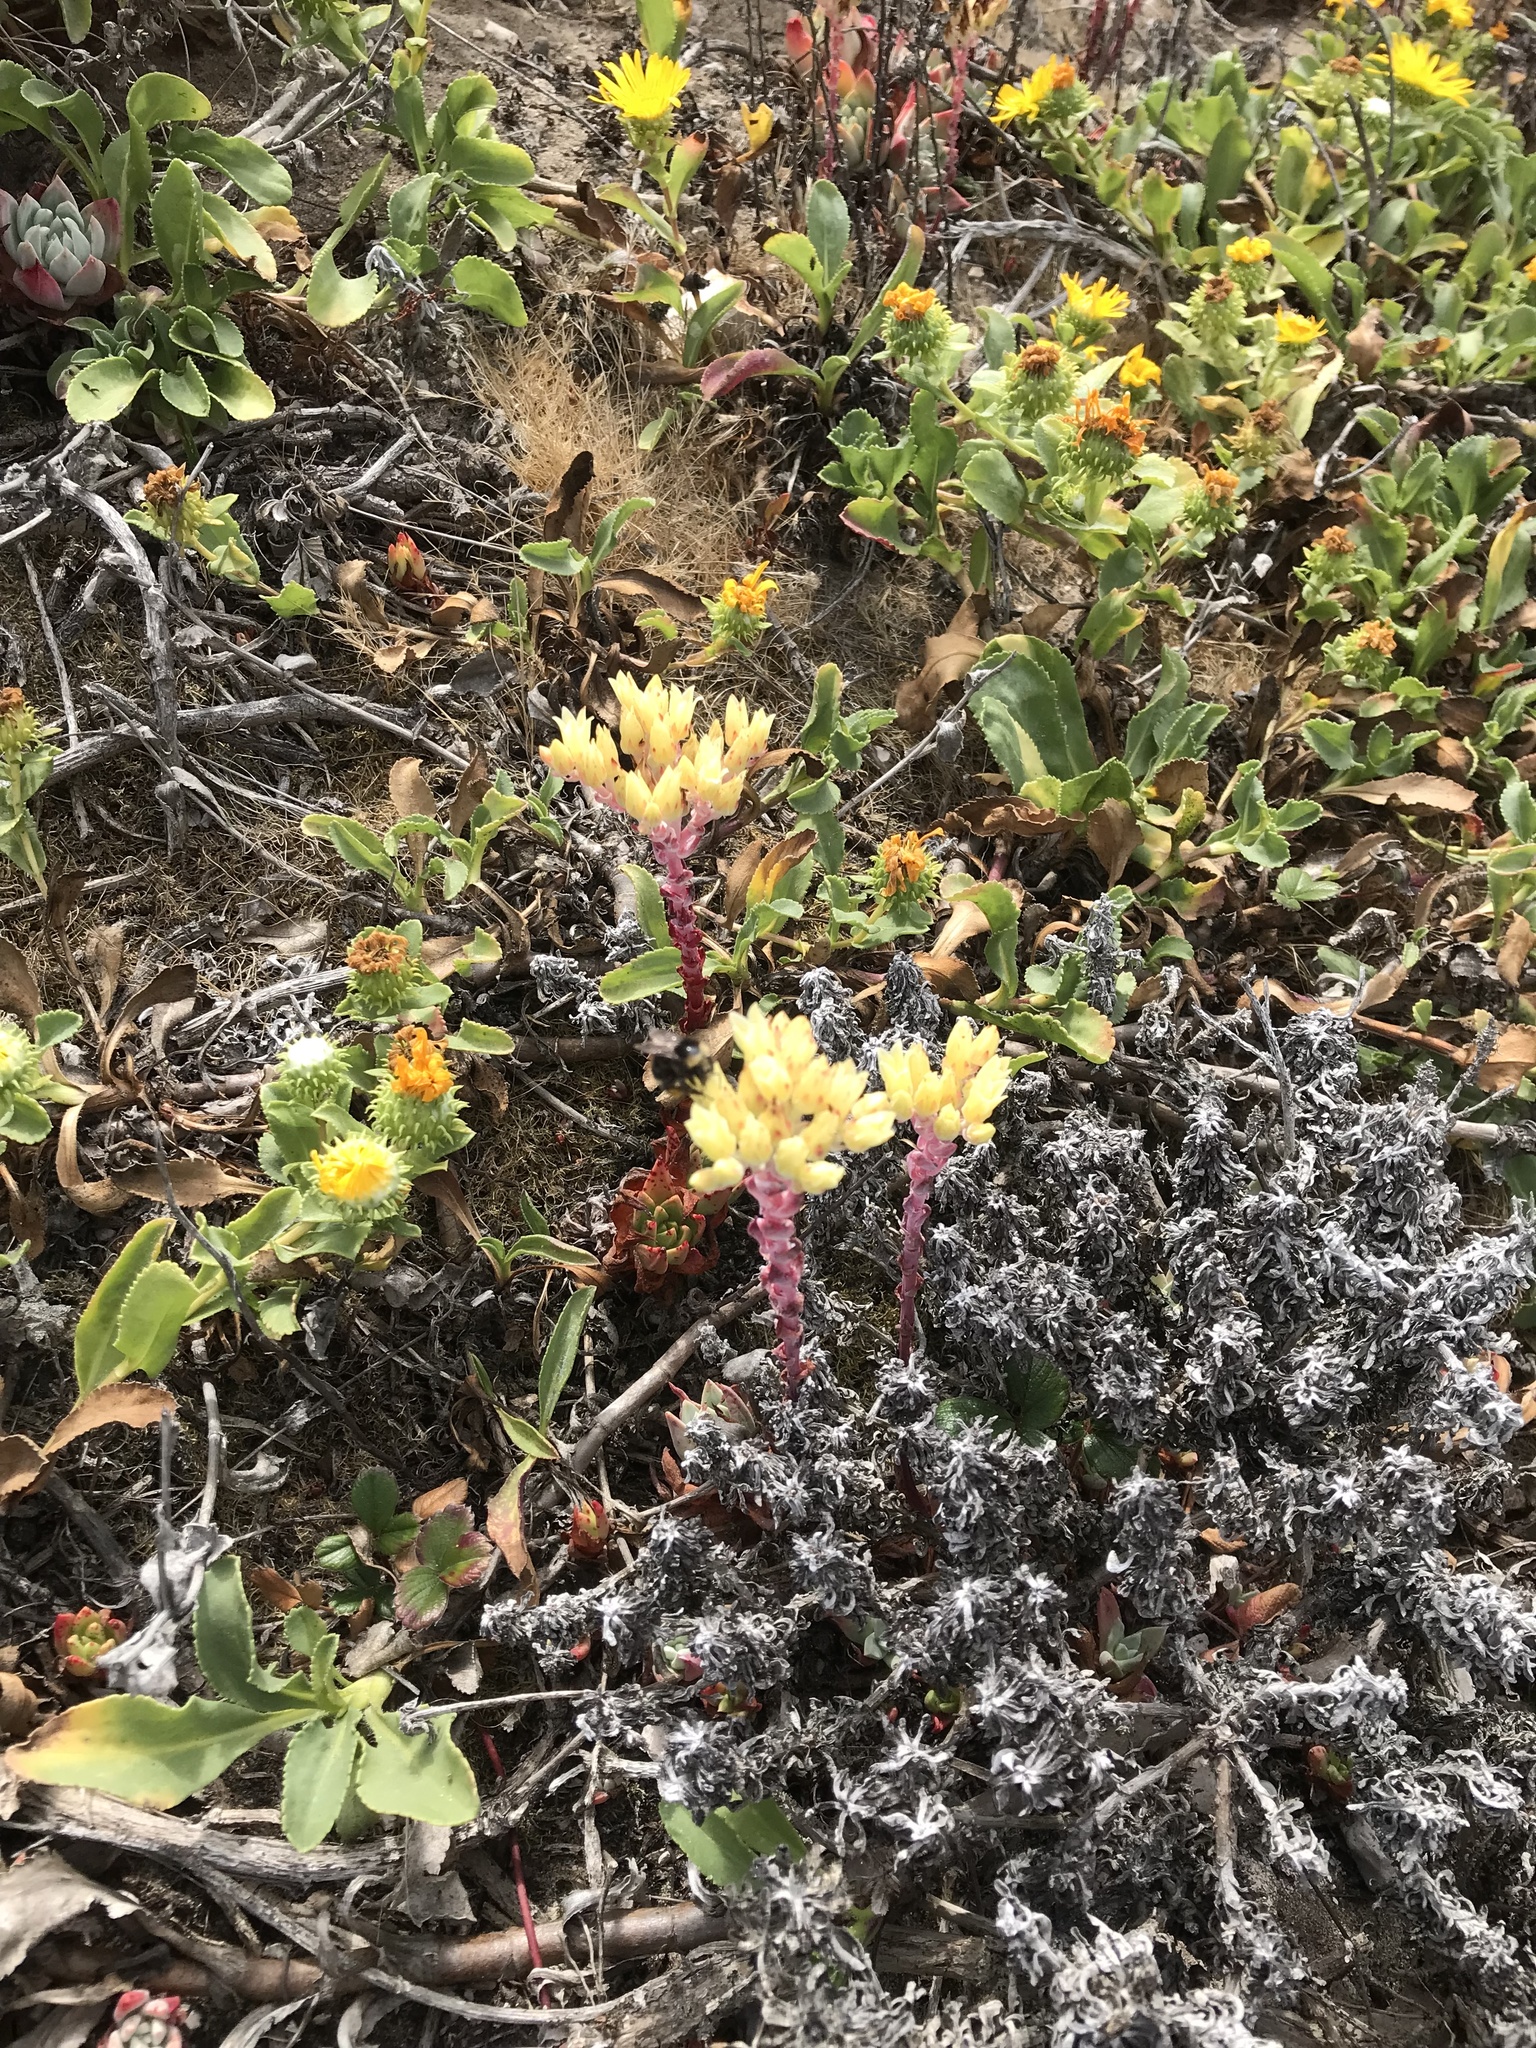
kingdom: Plantae
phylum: Tracheophyta
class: Magnoliopsida
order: Saxifragales
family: Crassulaceae
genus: Dudleya
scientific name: Dudleya farinosa
